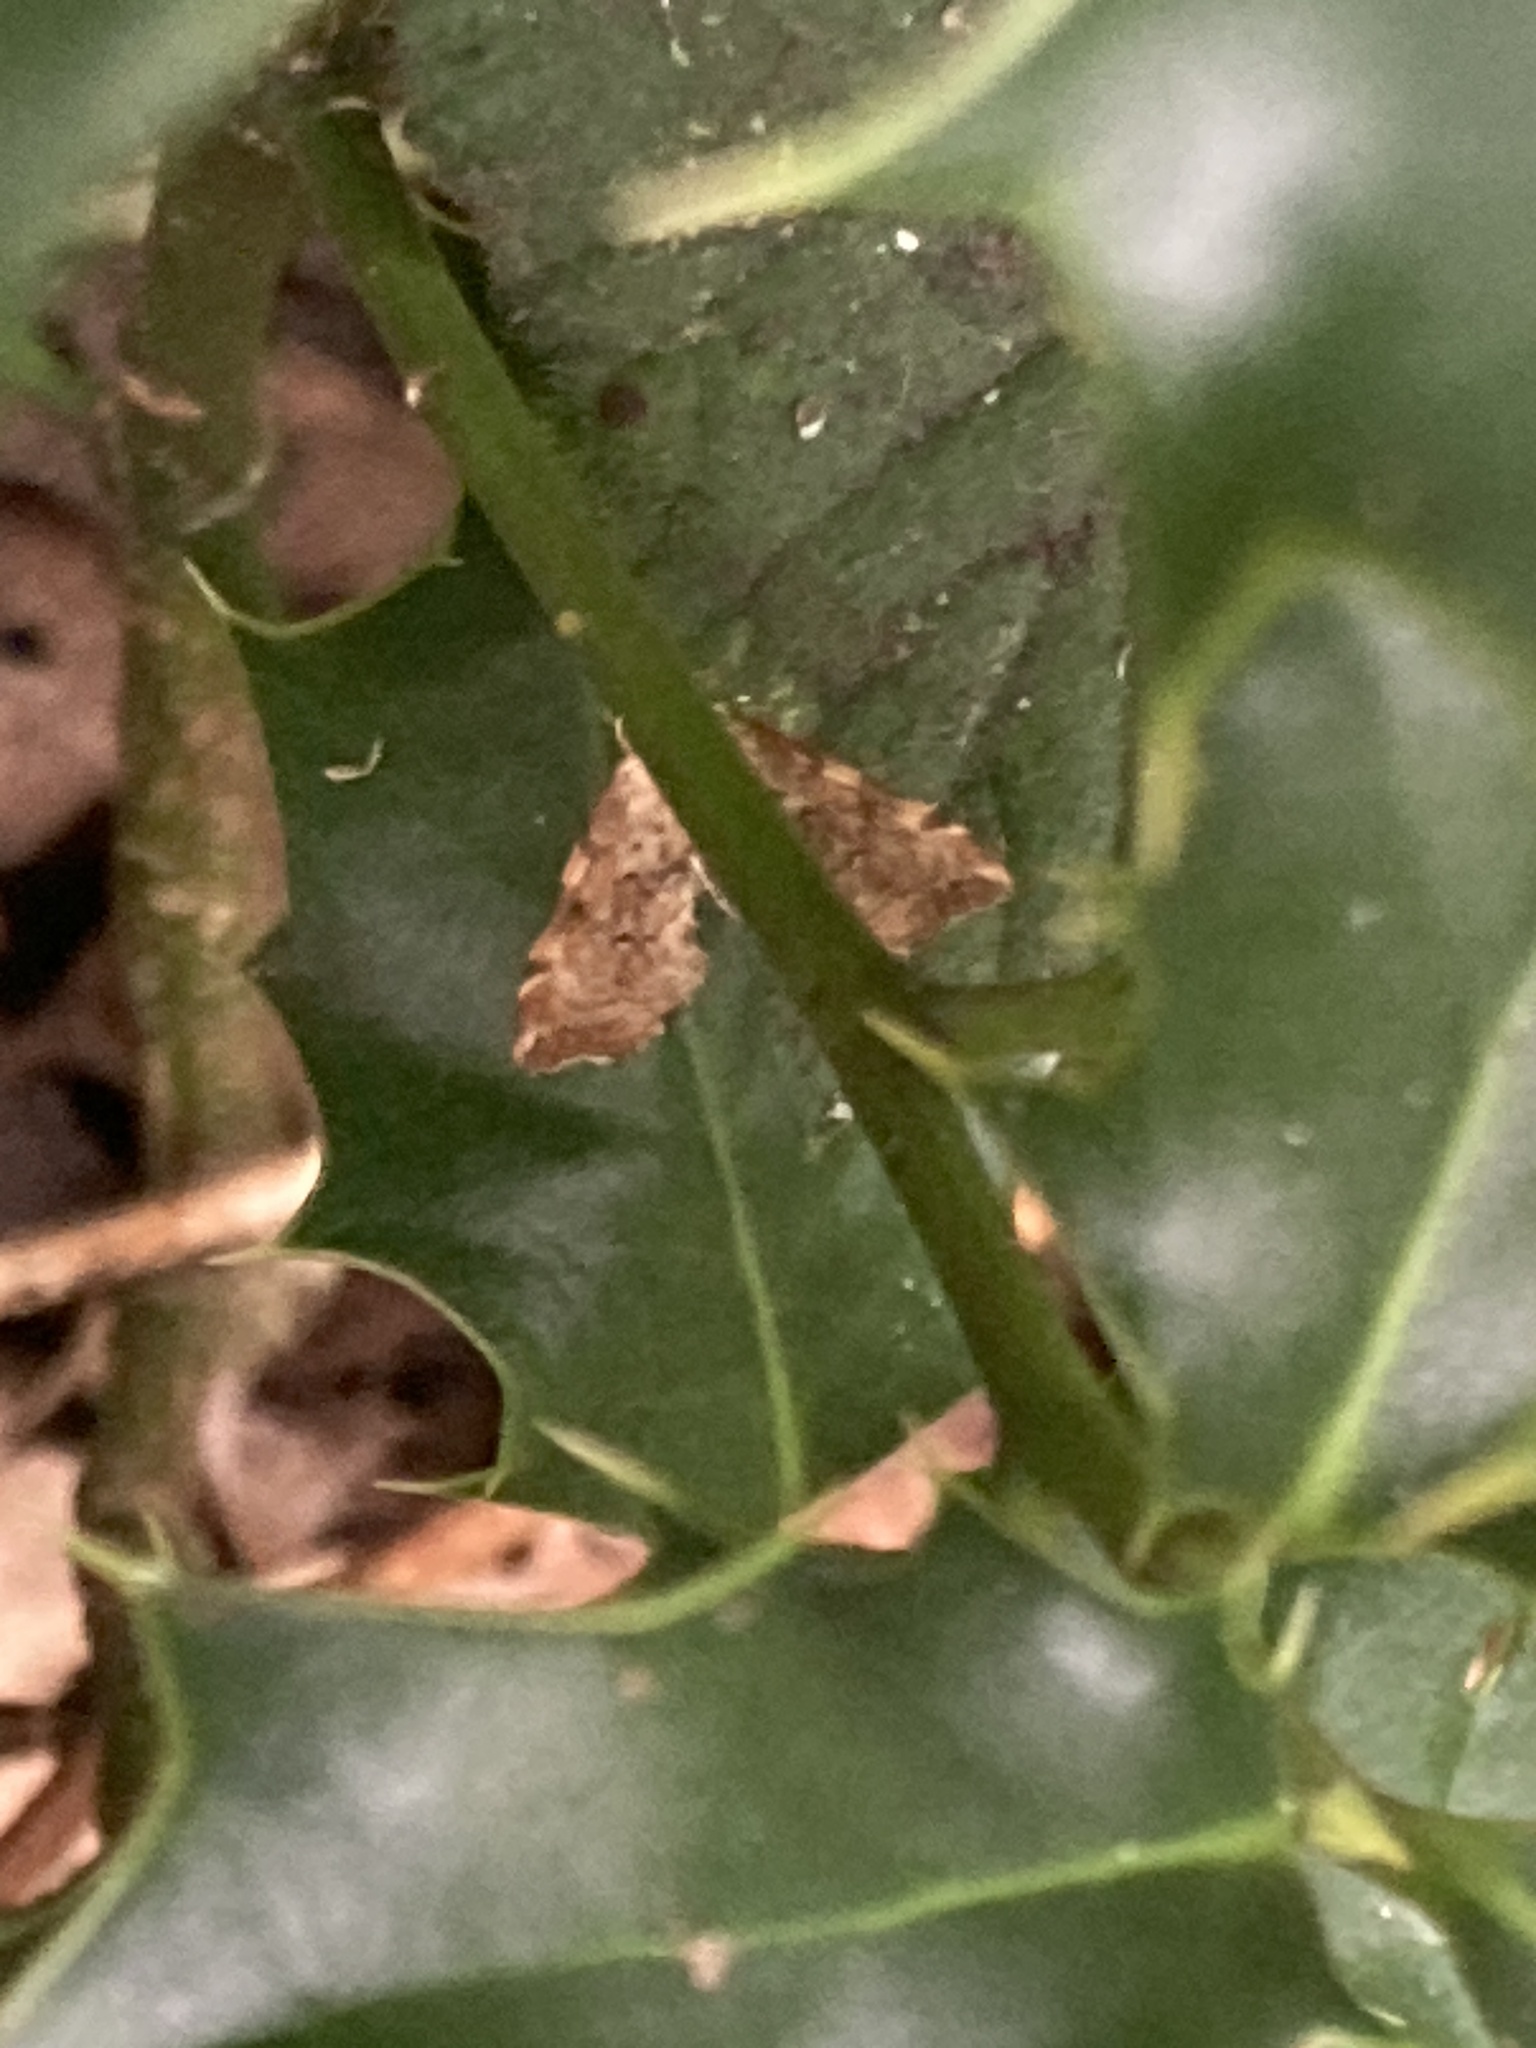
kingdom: Animalia
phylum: Arthropoda
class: Insecta
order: Lepidoptera
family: Pyralidae
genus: Musotima
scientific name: Musotima nitidalis
